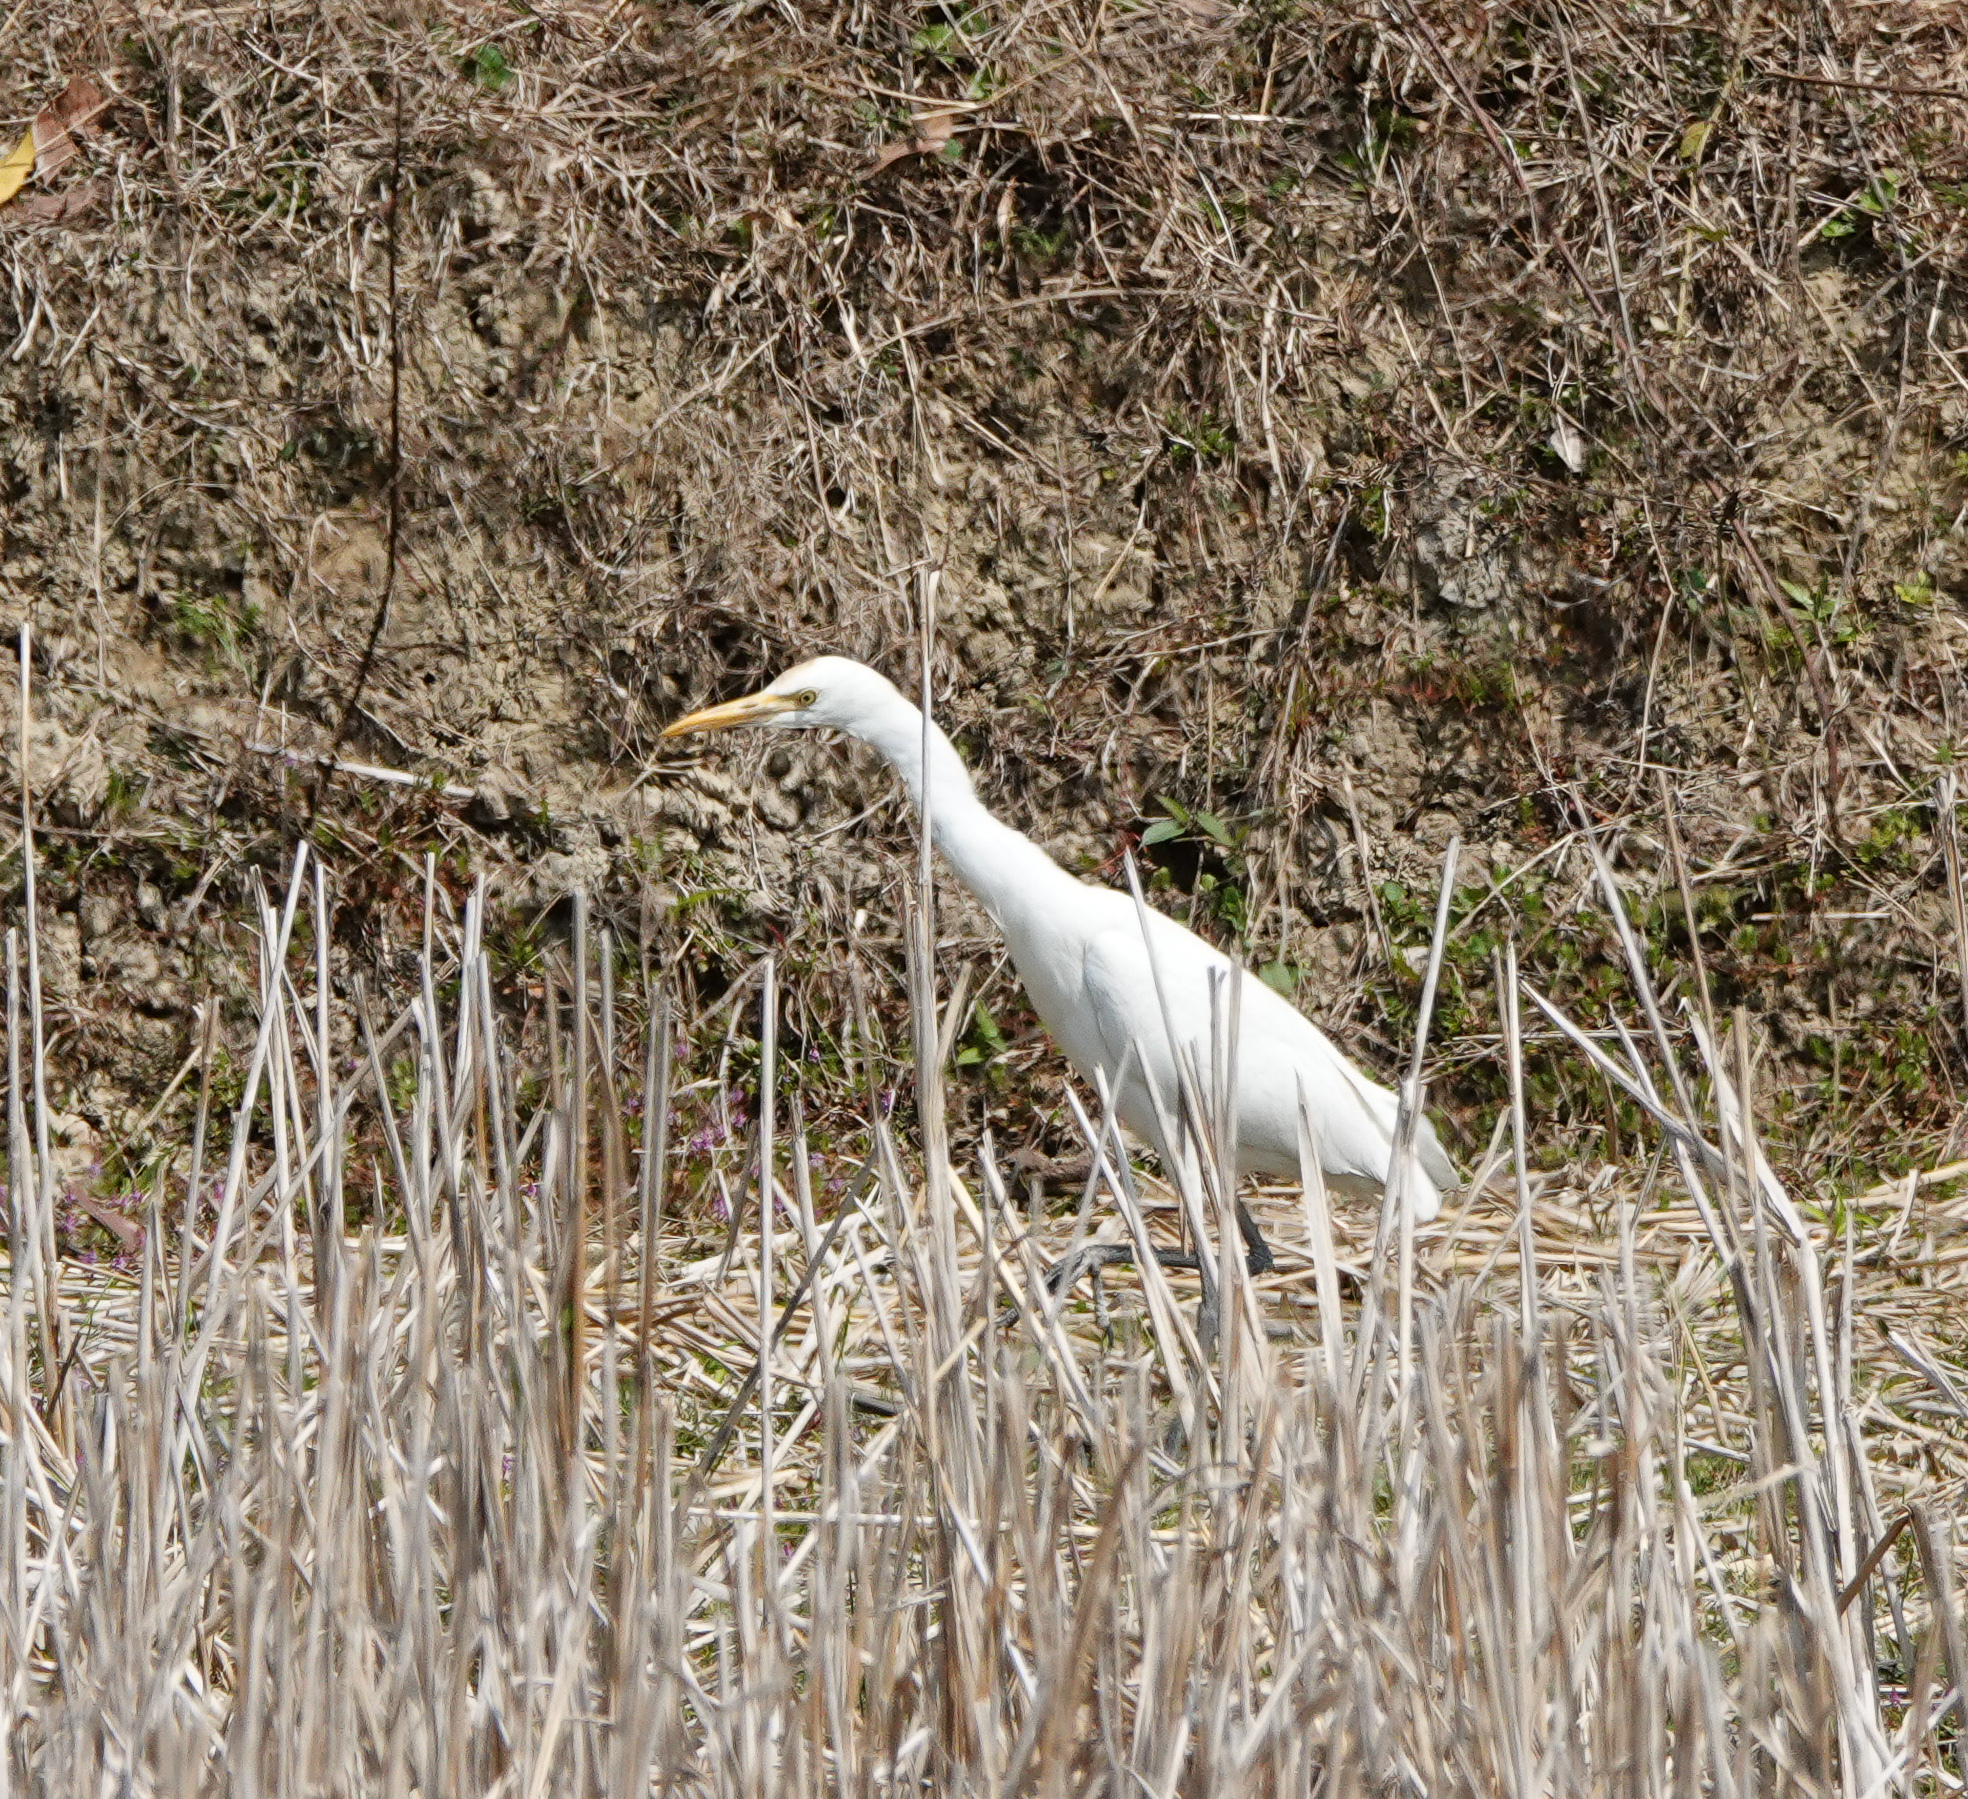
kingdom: Animalia
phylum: Chordata
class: Aves
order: Pelecaniformes
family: Ardeidae
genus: Bubulcus
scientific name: Bubulcus coromandus
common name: Eastern cattle egret
